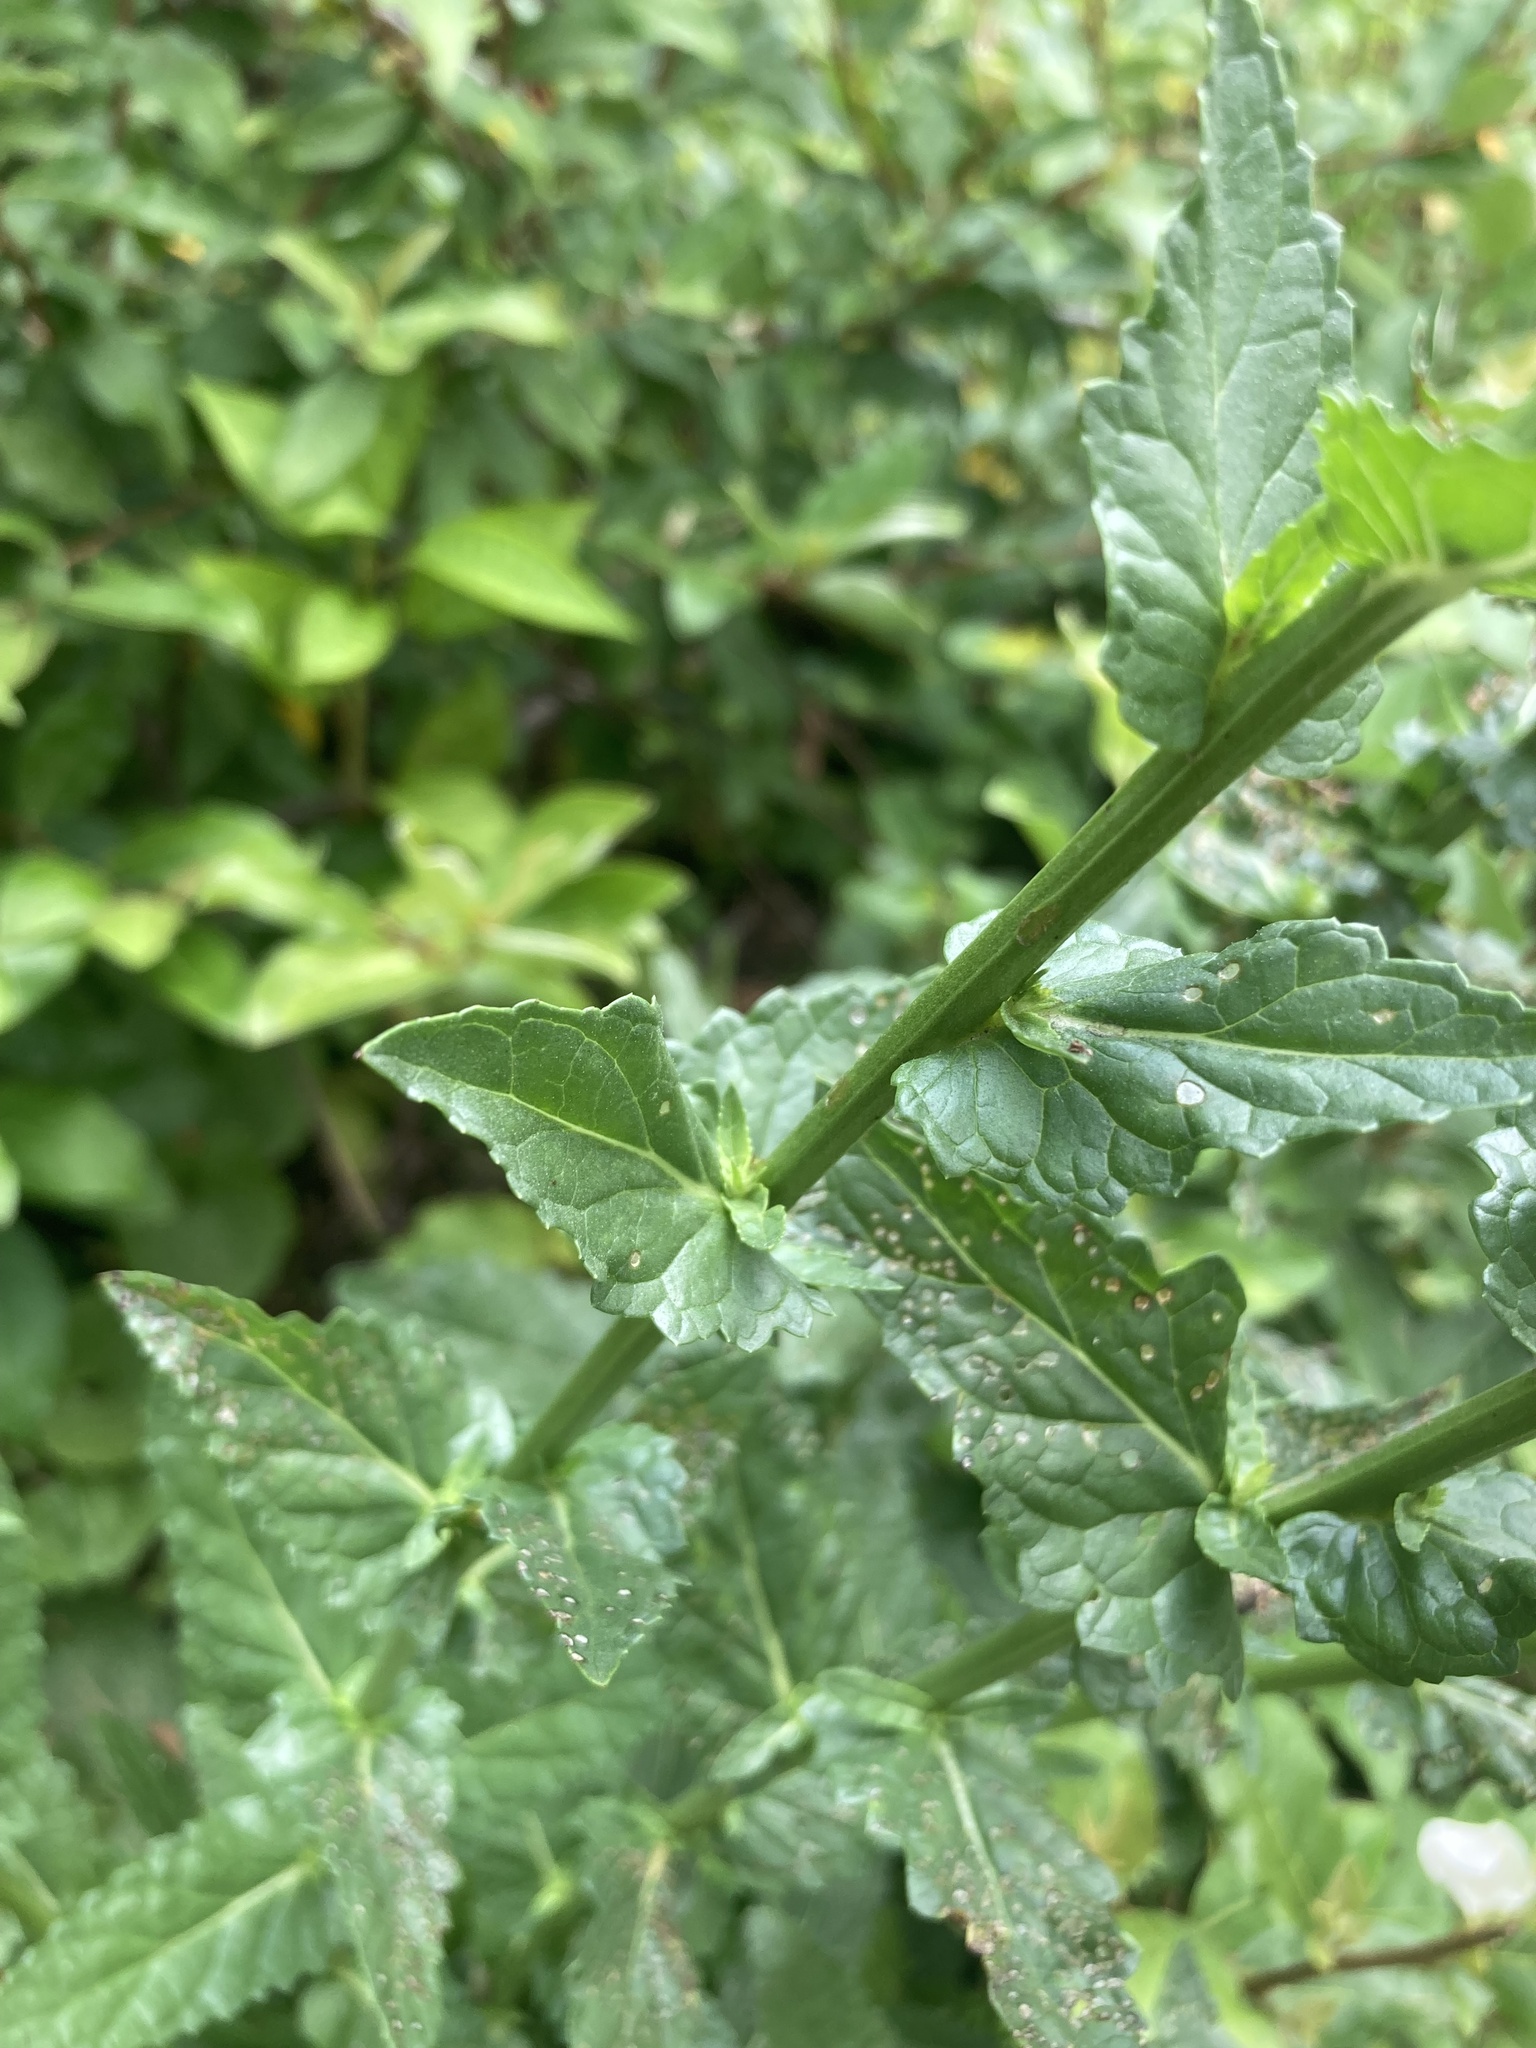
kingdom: Plantae
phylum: Tracheophyta
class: Magnoliopsida
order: Lamiales
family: Scrophulariaceae
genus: Verbascum
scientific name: Verbascum blattaria
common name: Moth mullein
